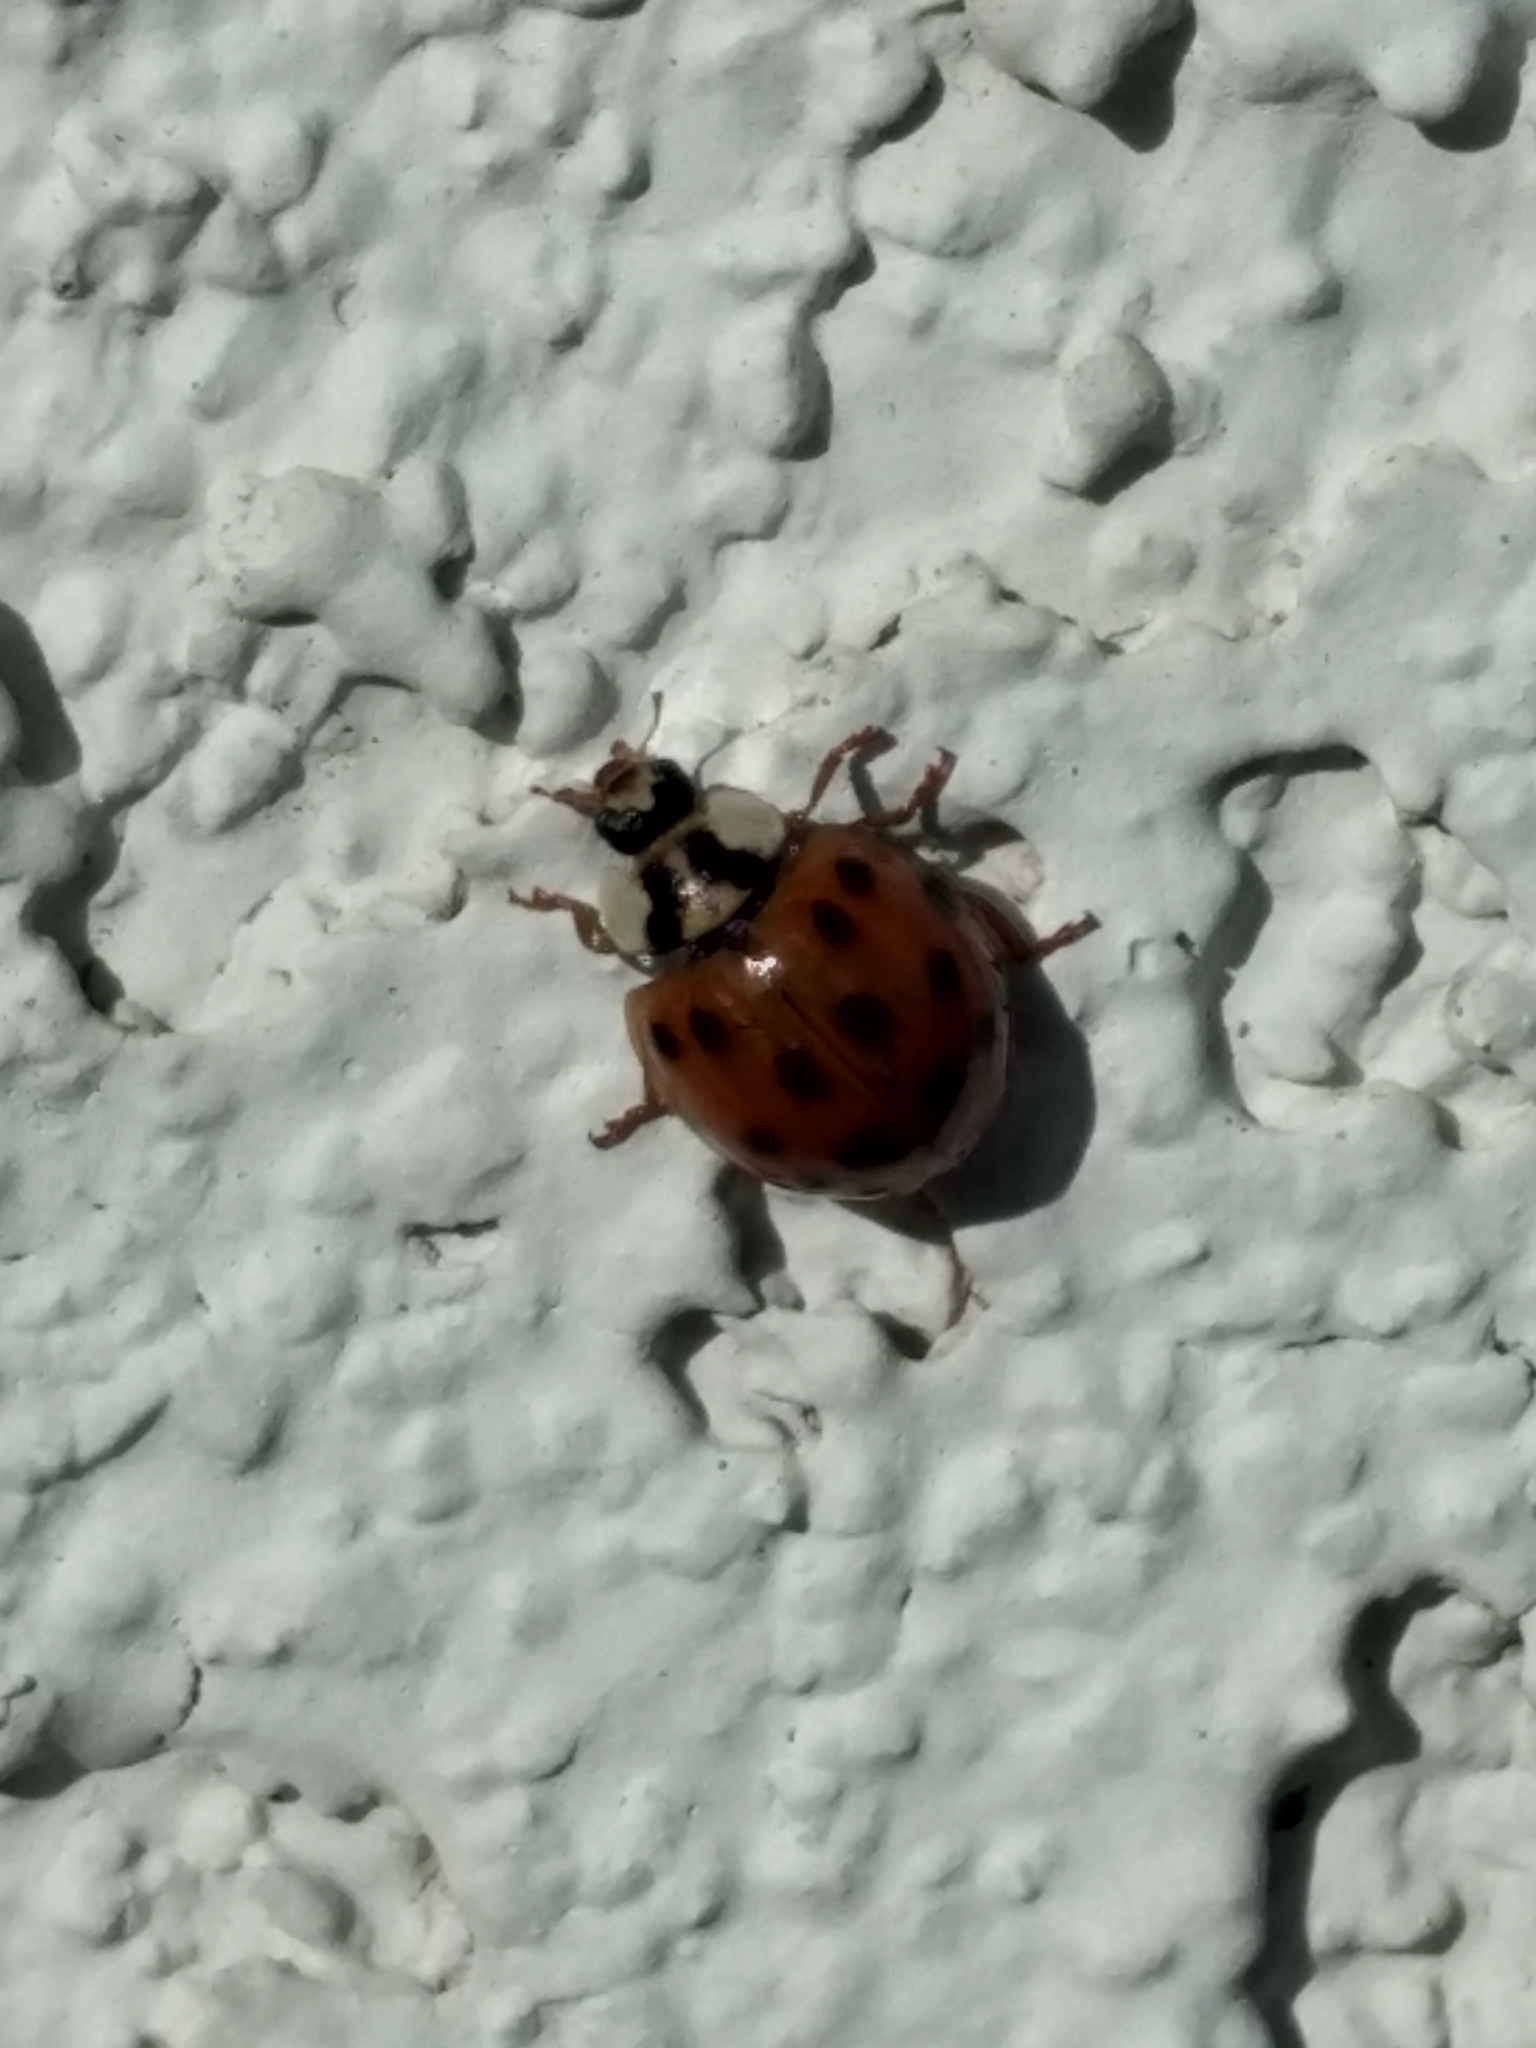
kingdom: Animalia
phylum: Arthropoda
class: Insecta
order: Coleoptera
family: Coccinellidae
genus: Harmonia
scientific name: Harmonia axyridis
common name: Harlequin ladybird
